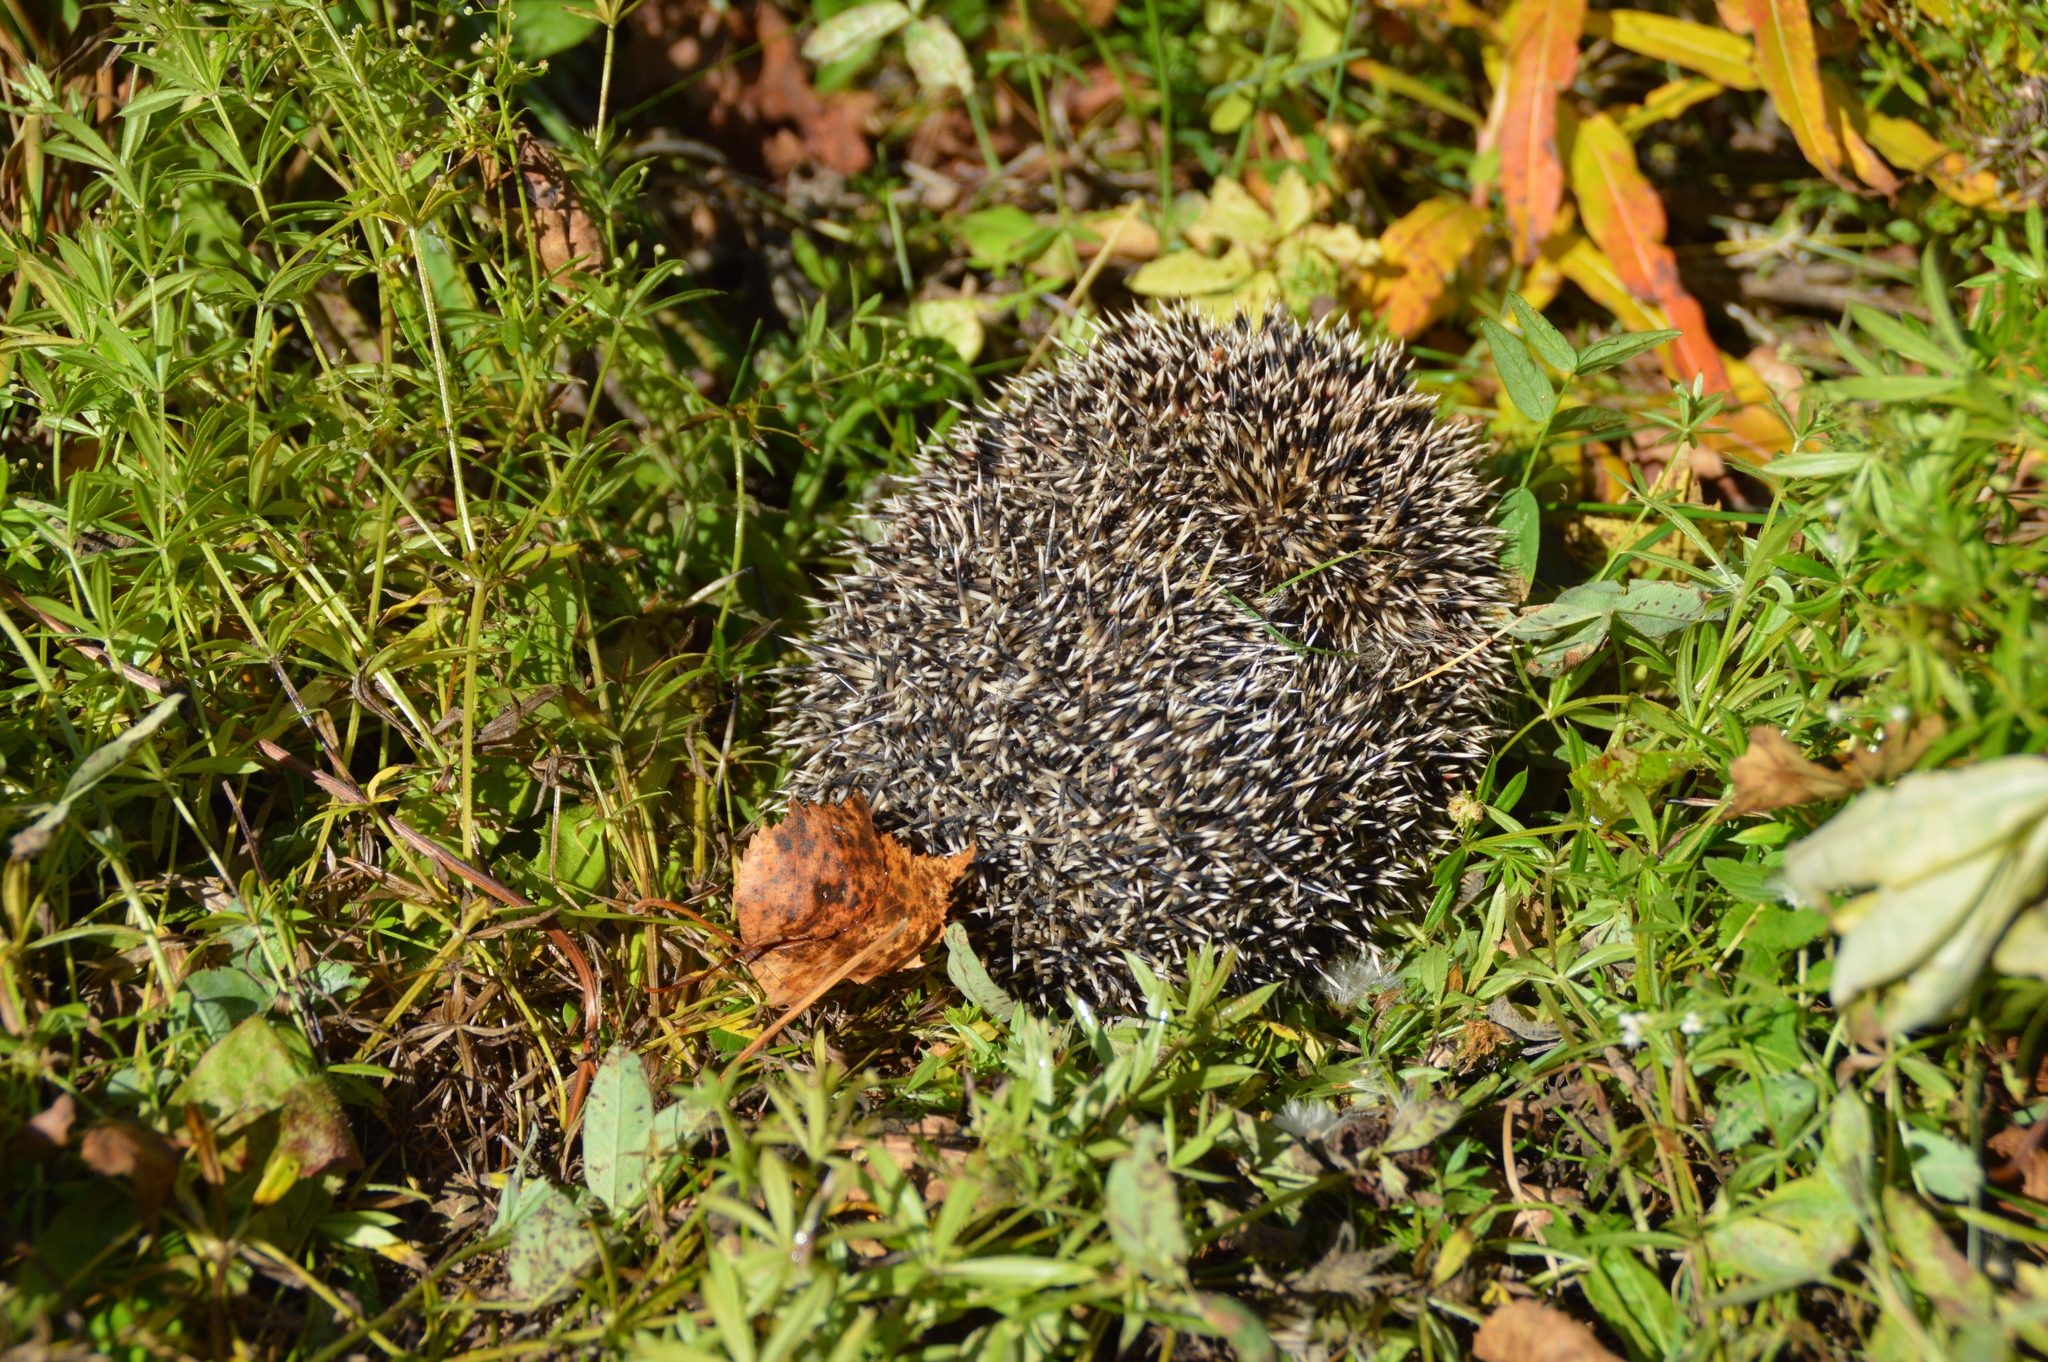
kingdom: Animalia
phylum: Chordata
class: Mammalia
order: Erinaceomorpha
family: Erinaceidae
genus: Erinaceus
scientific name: Erinaceus roumanicus
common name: Northern white-breasted hedgehog
